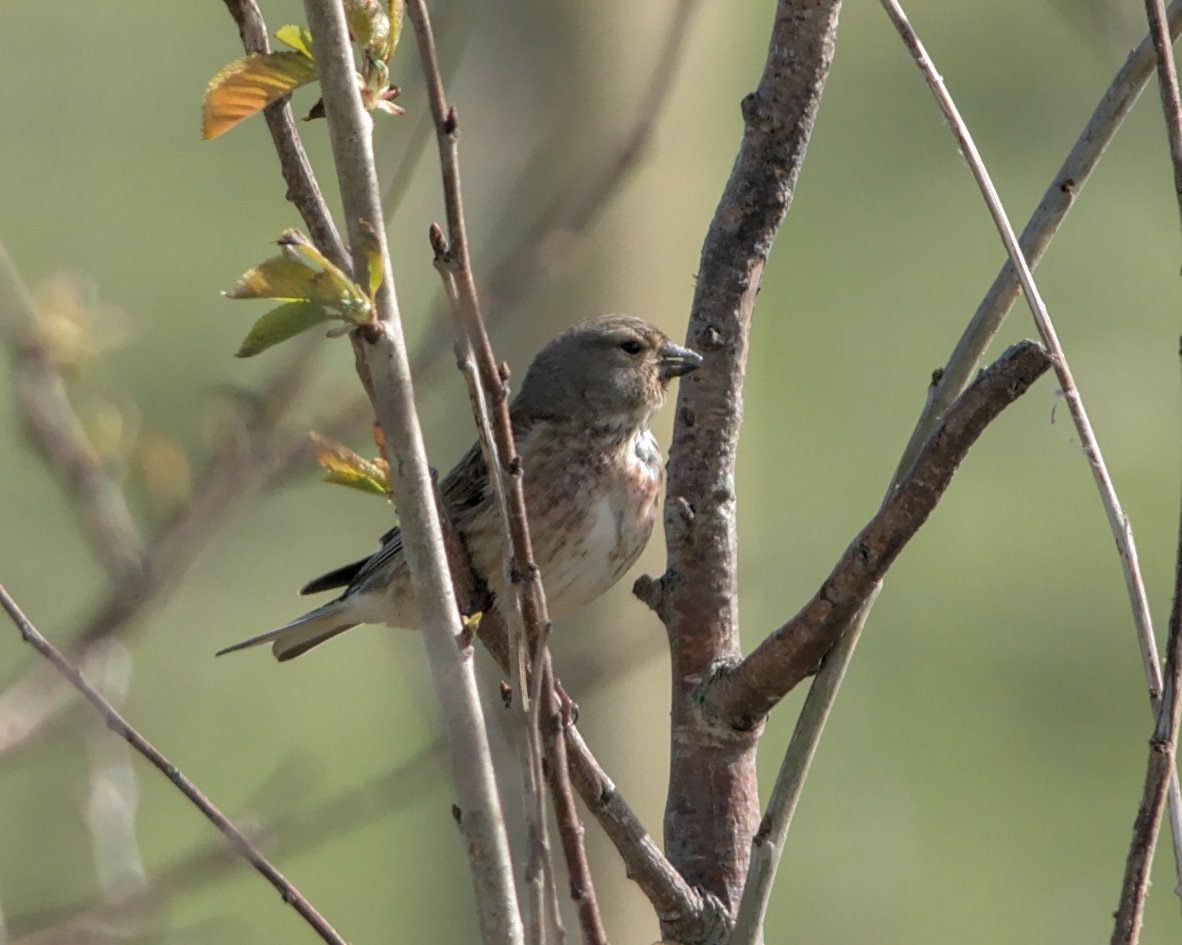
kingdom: Animalia
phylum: Chordata
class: Aves
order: Passeriformes
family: Fringillidae
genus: Linaria
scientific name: Linaria cannabina
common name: Common linnet
